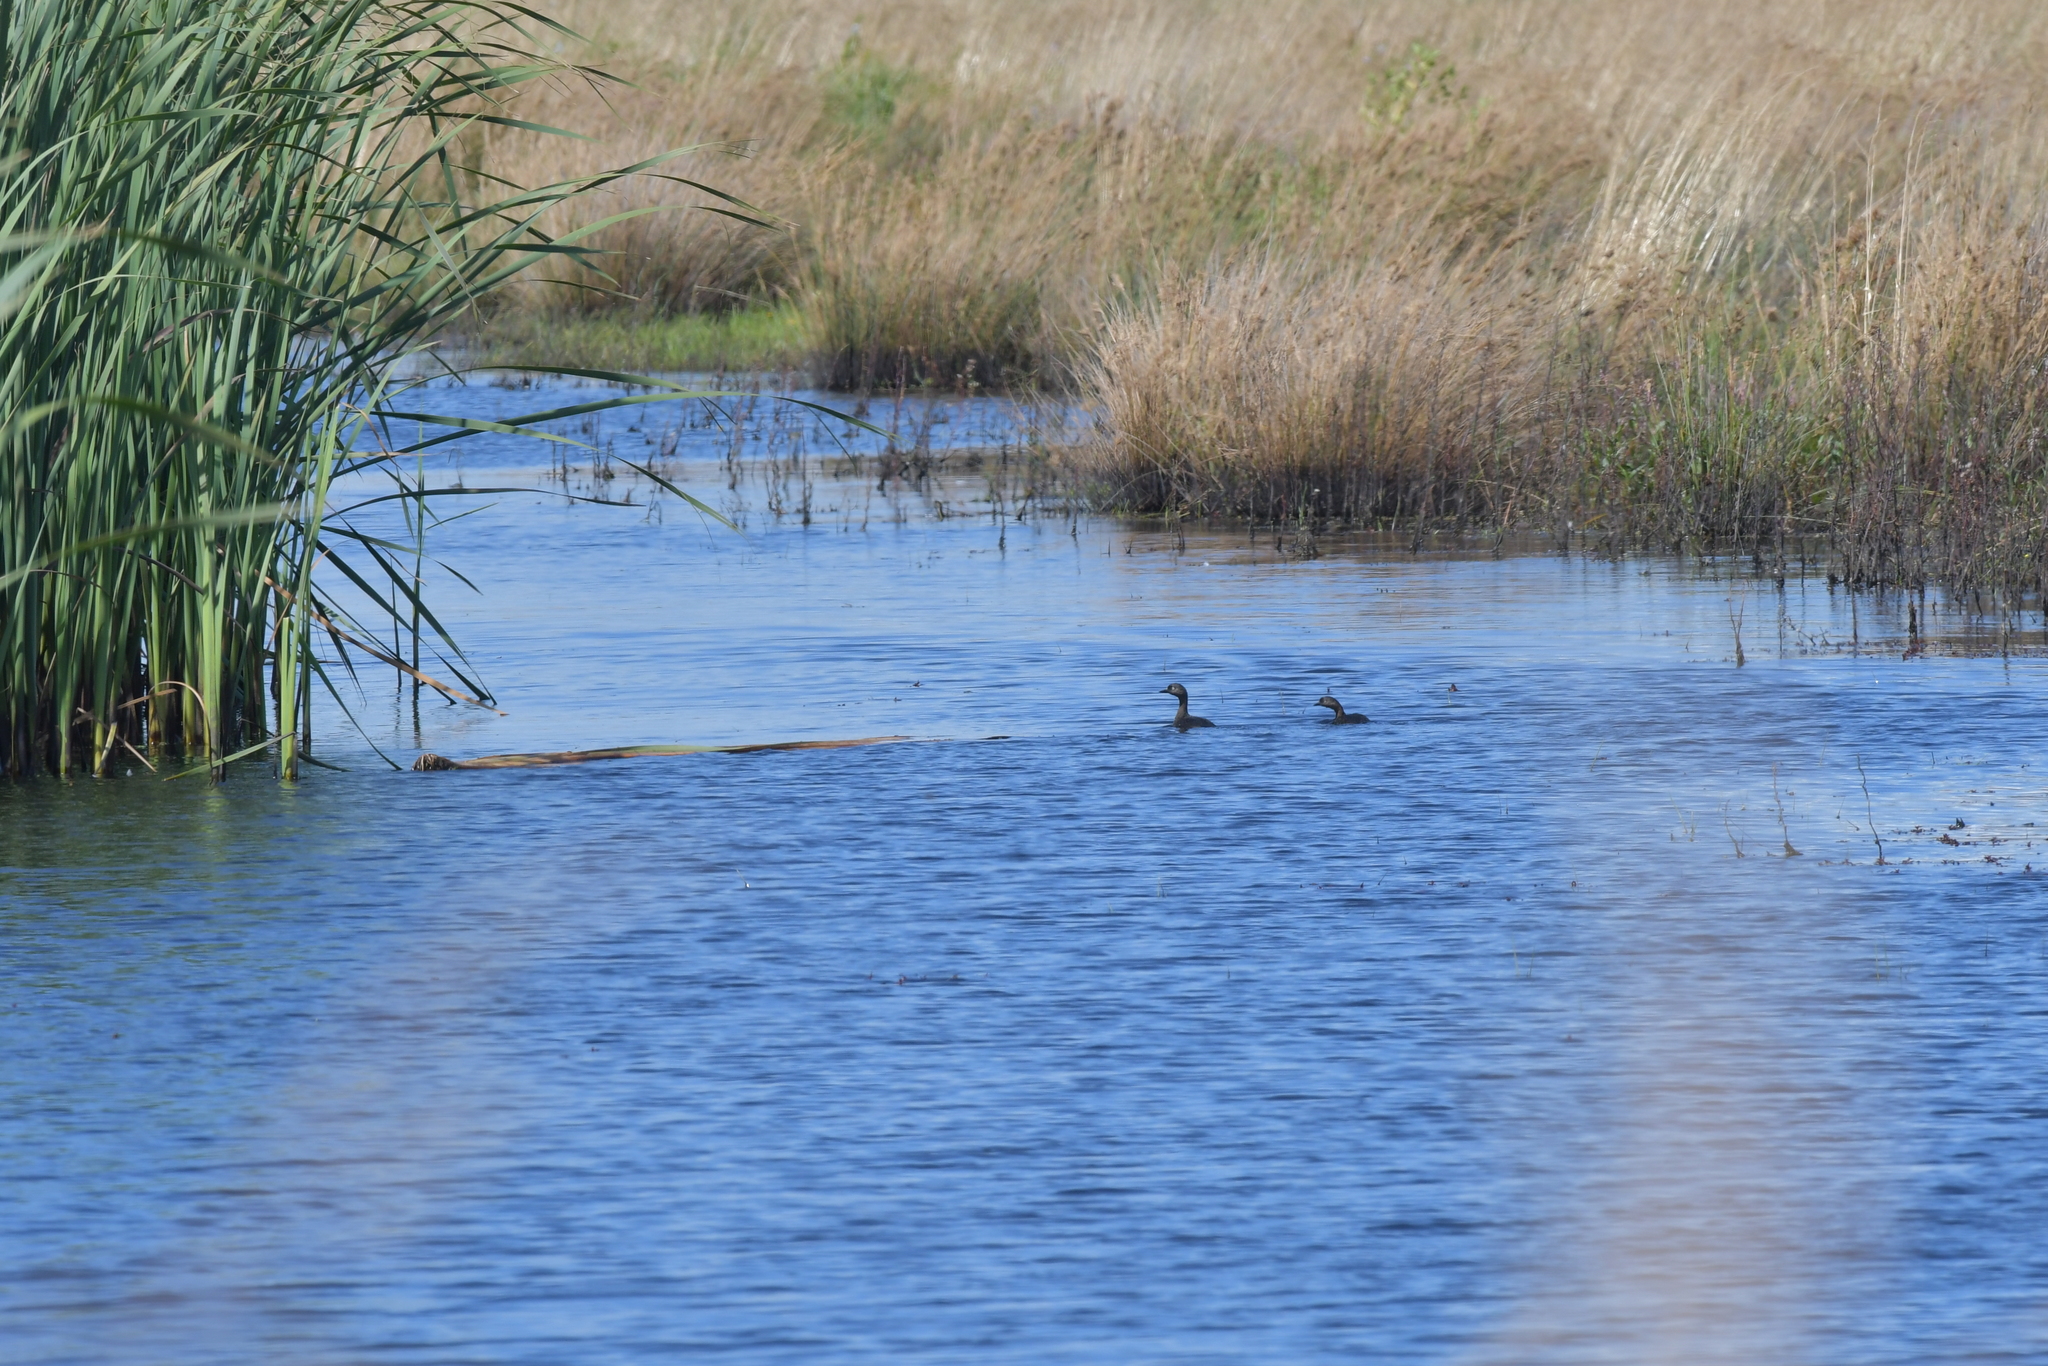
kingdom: Animalia
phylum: Chordata
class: Aves
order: Podicipediformes
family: Podicipedidae
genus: Poliocephalus
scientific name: Poliocephalus rufopectus
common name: New zealand grebe
